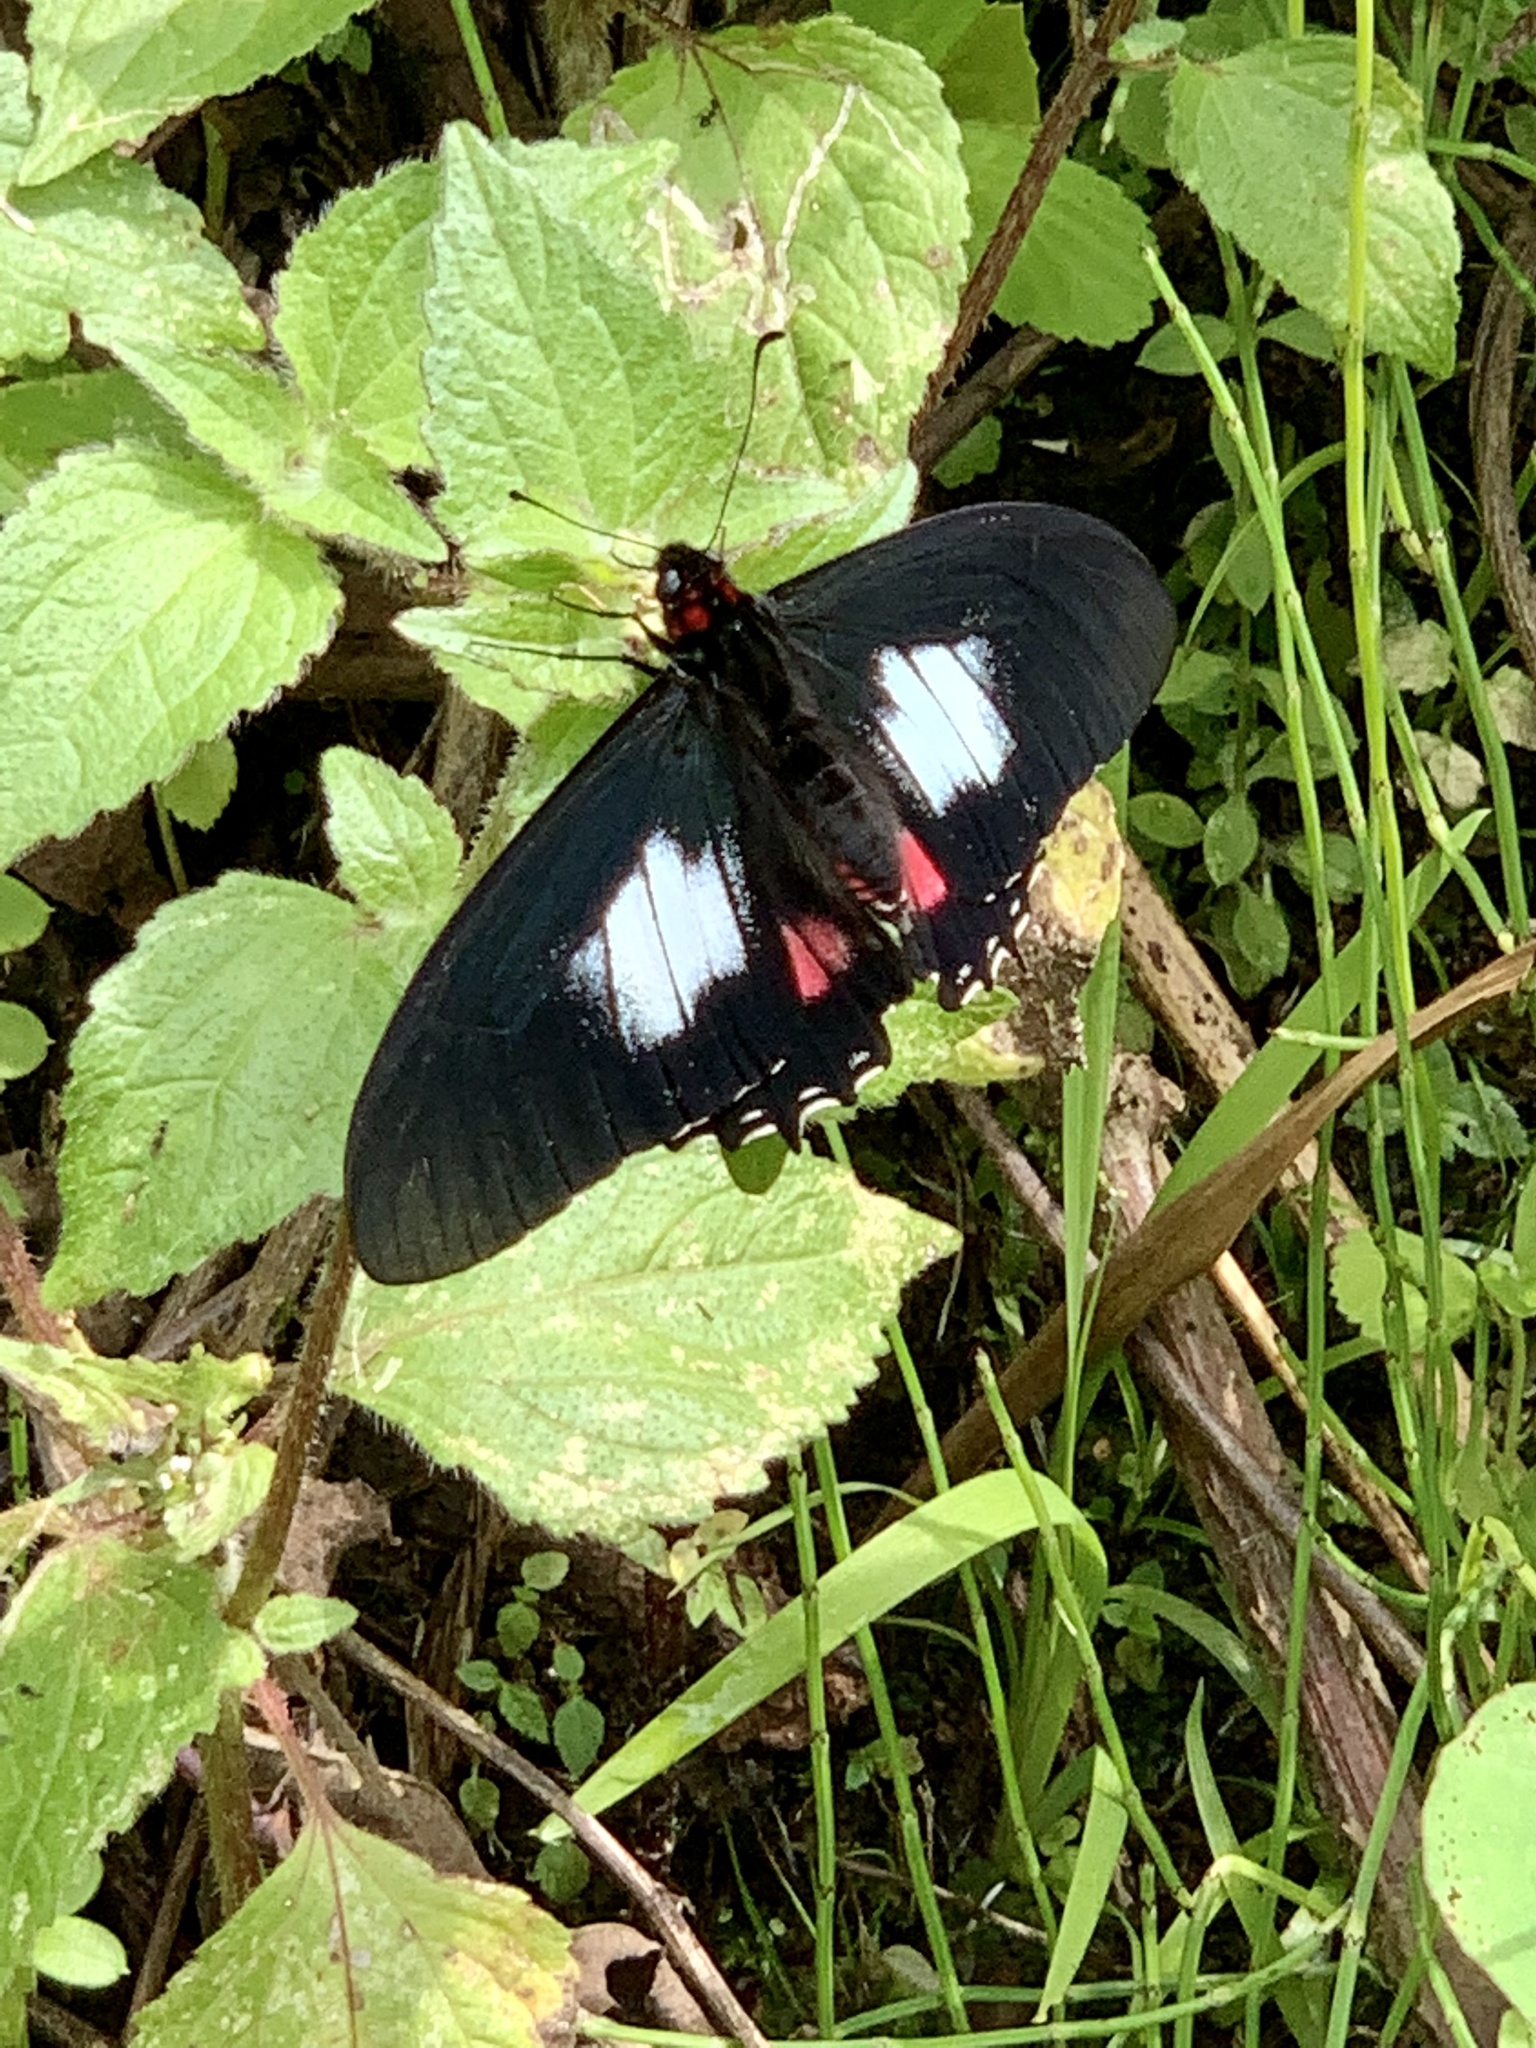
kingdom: Animalia
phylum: Arthropoda
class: Insecta
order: Lepidoptera
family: Papilionidae
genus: Mimoides
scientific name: Mimoides euryleon
